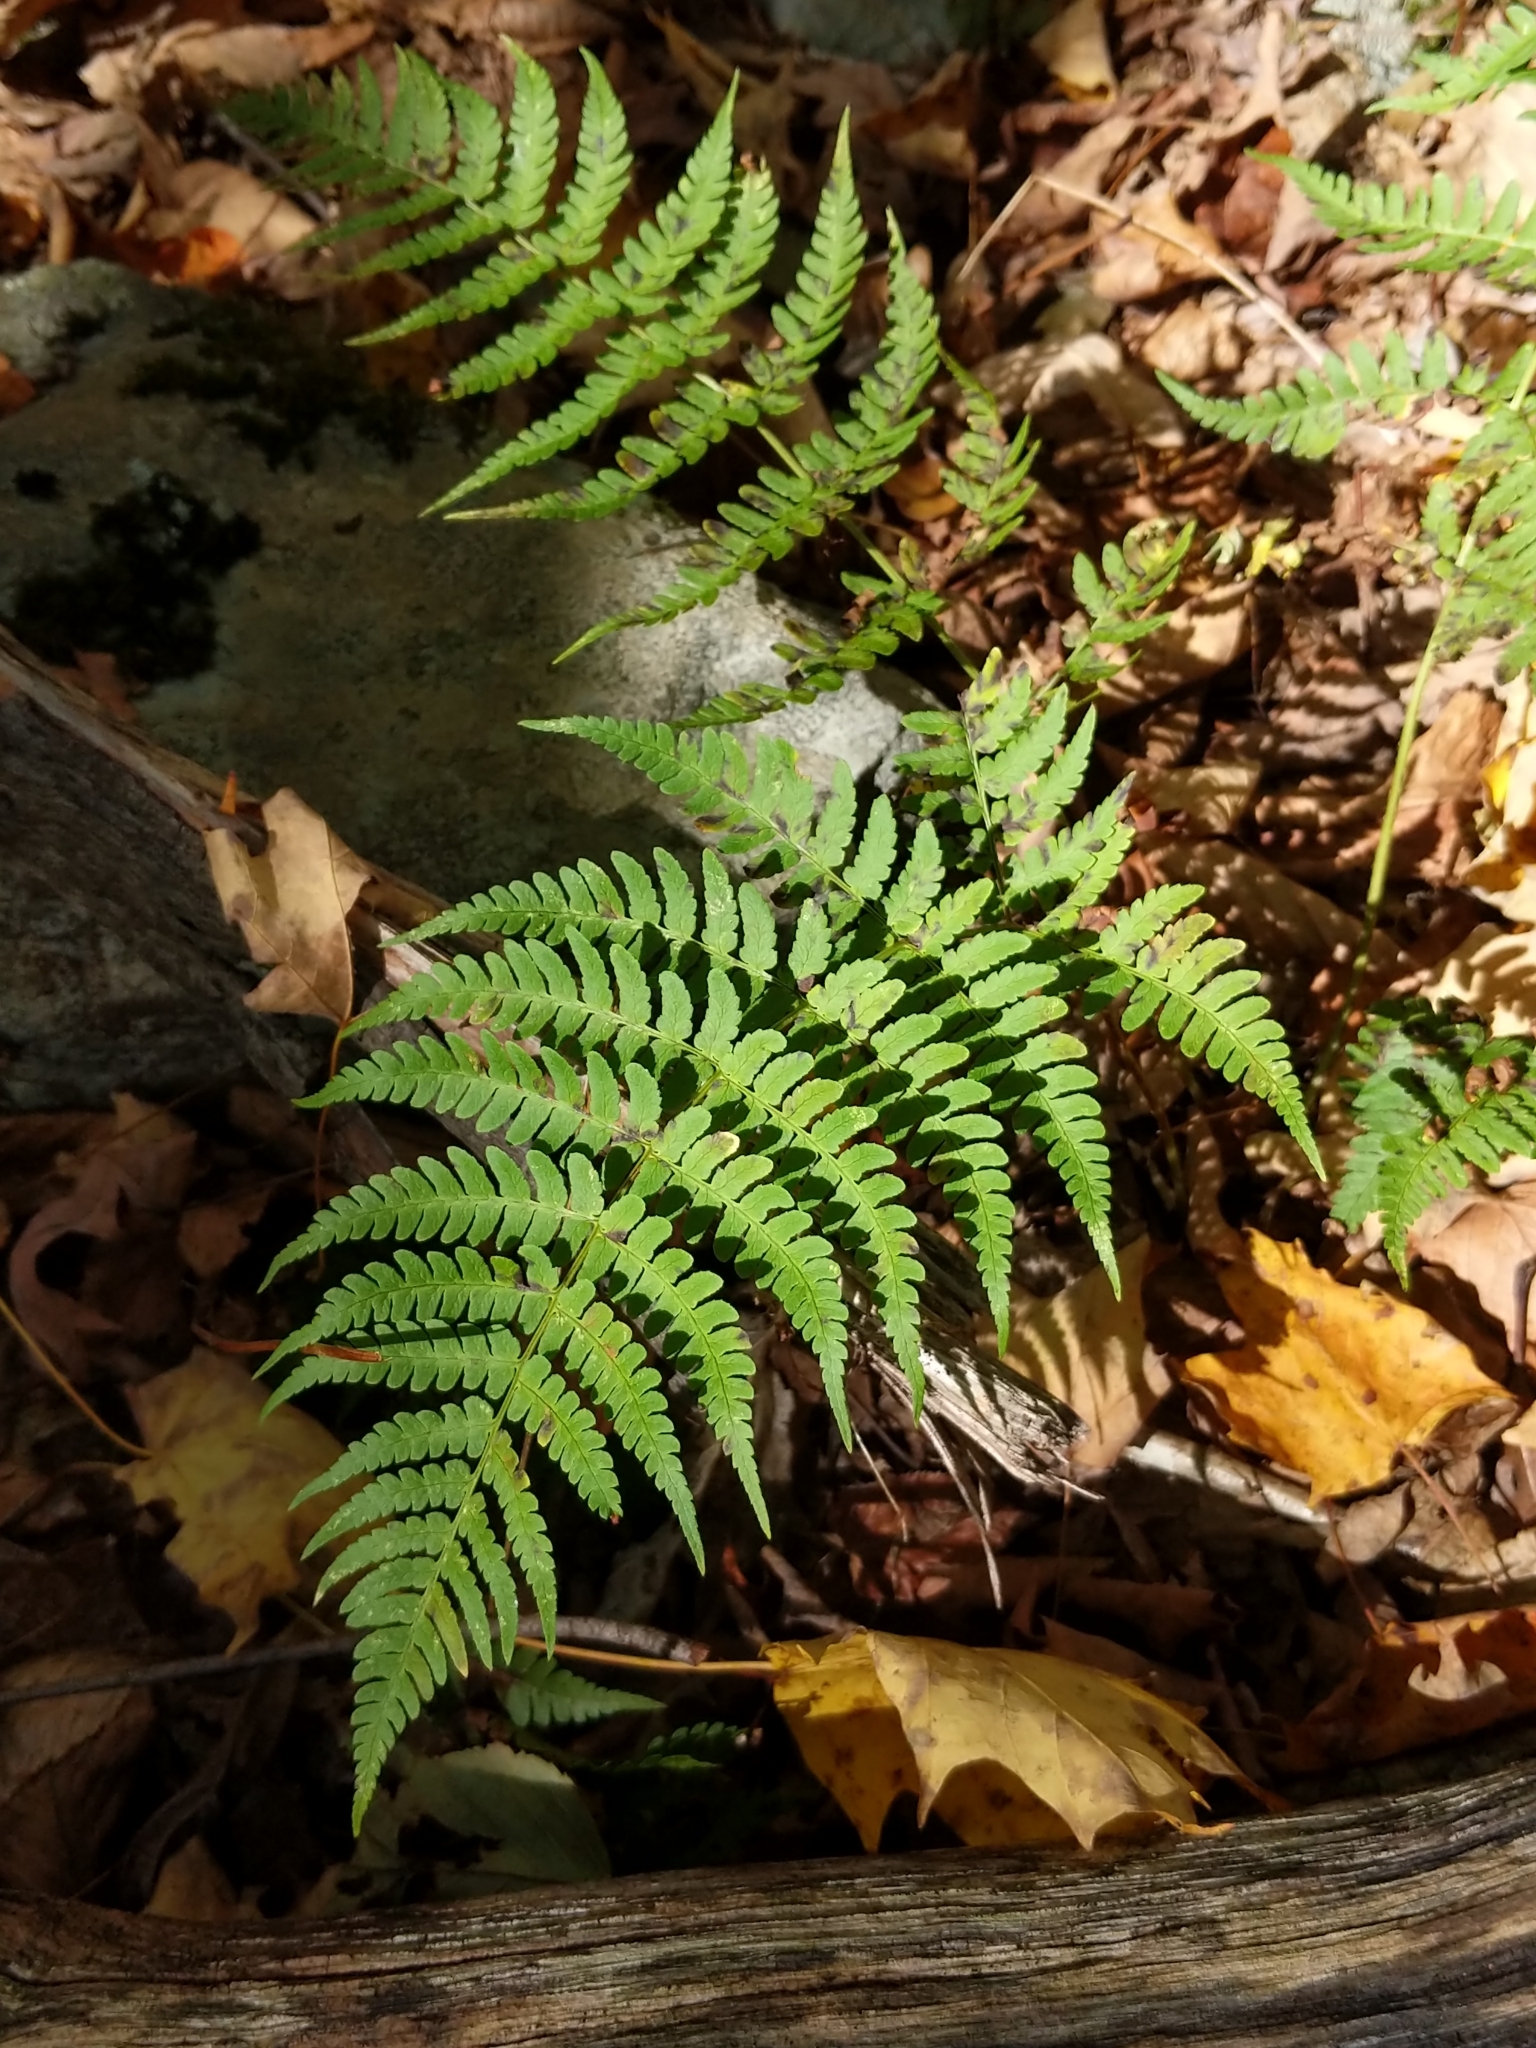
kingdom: Plantae
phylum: Tracheophyta
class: Polypodiopsida
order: Polypodiales
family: Dryopteridaceae
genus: Dryopteris
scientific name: Dryopteris marginalis
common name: Marginal wood fern
